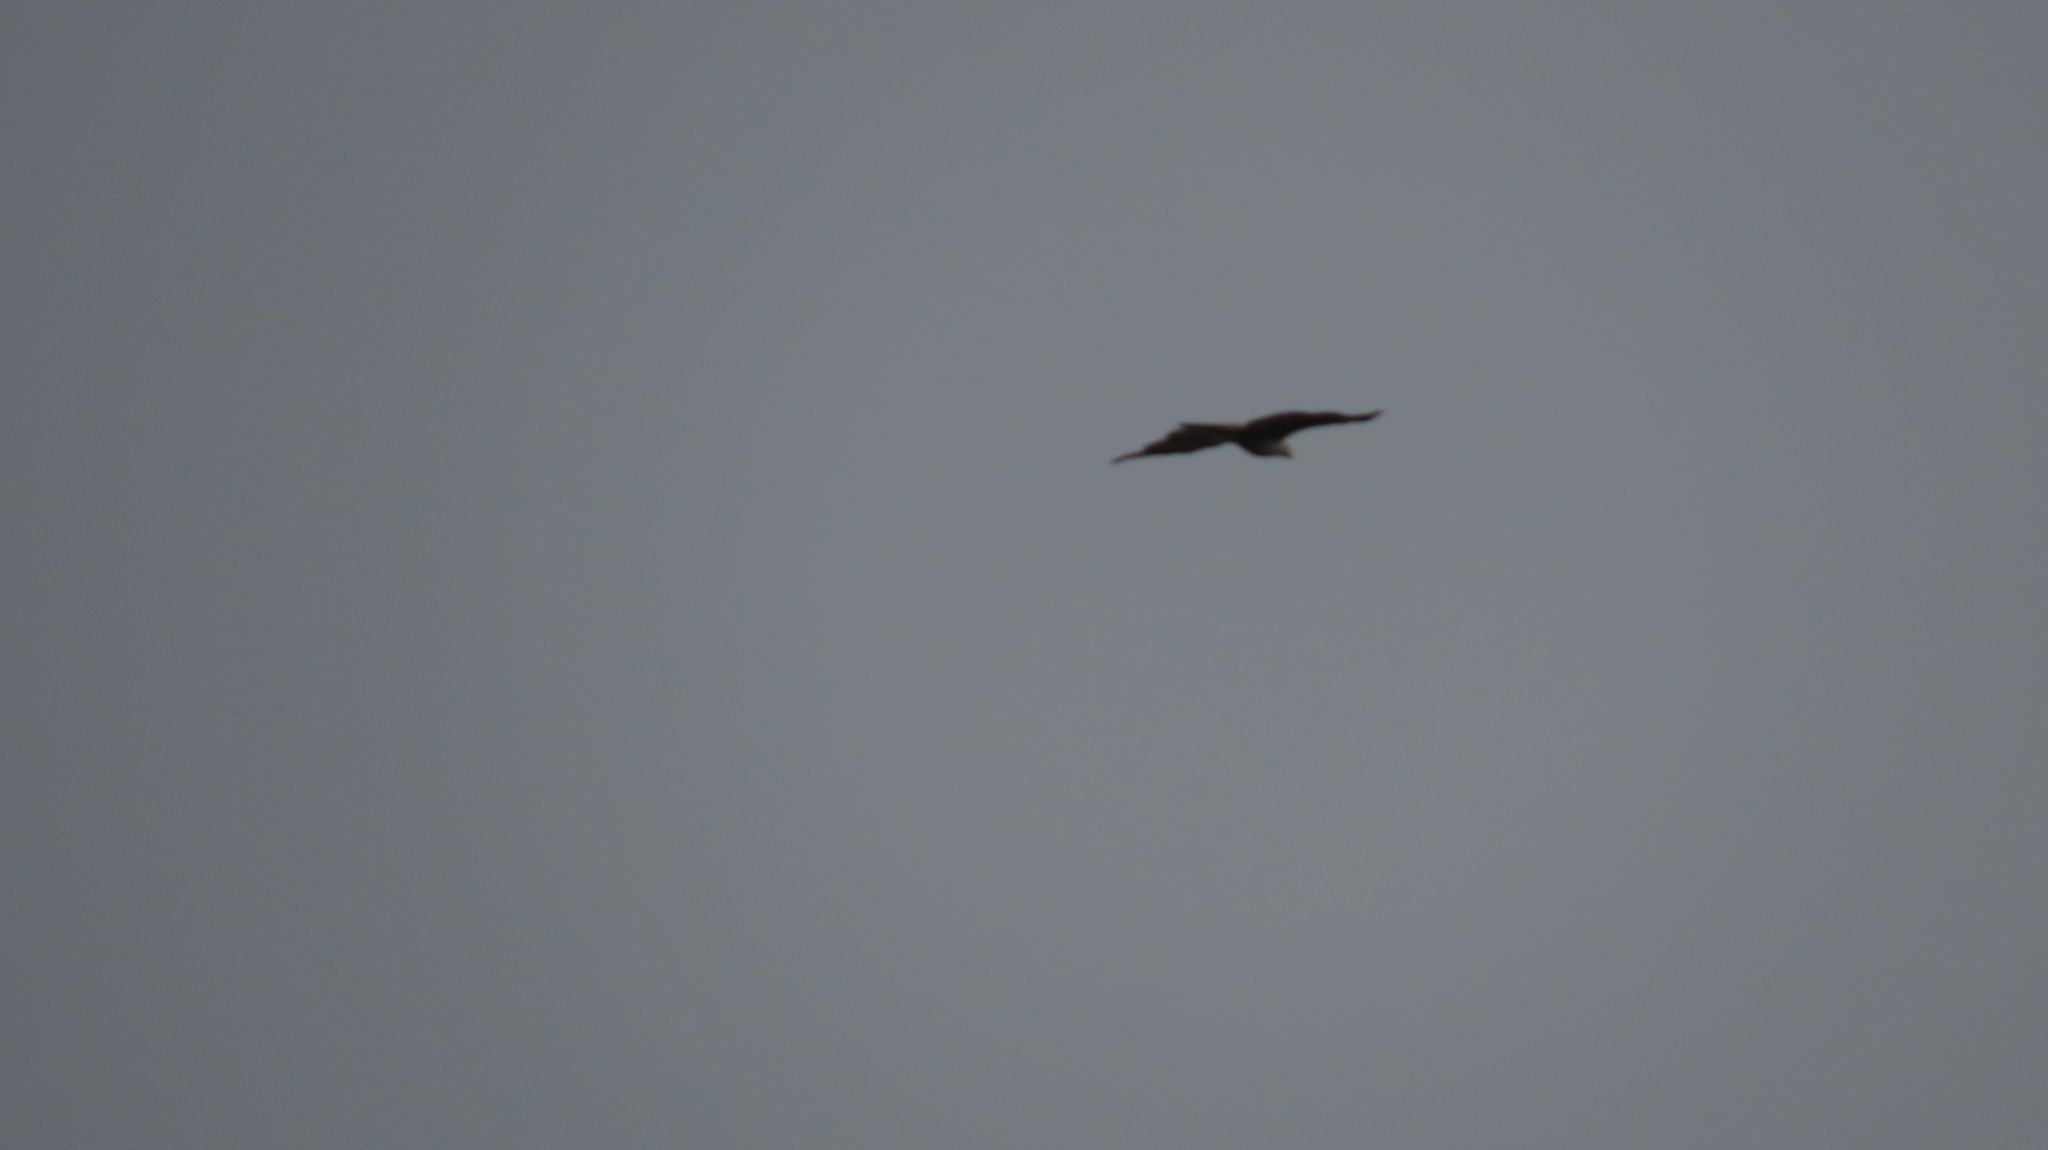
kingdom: Animalia
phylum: Chordata
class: Aves
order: Accipitriformes
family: Accipitridae
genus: Haliastur
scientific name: Haliastur indus
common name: Brahminy kite
